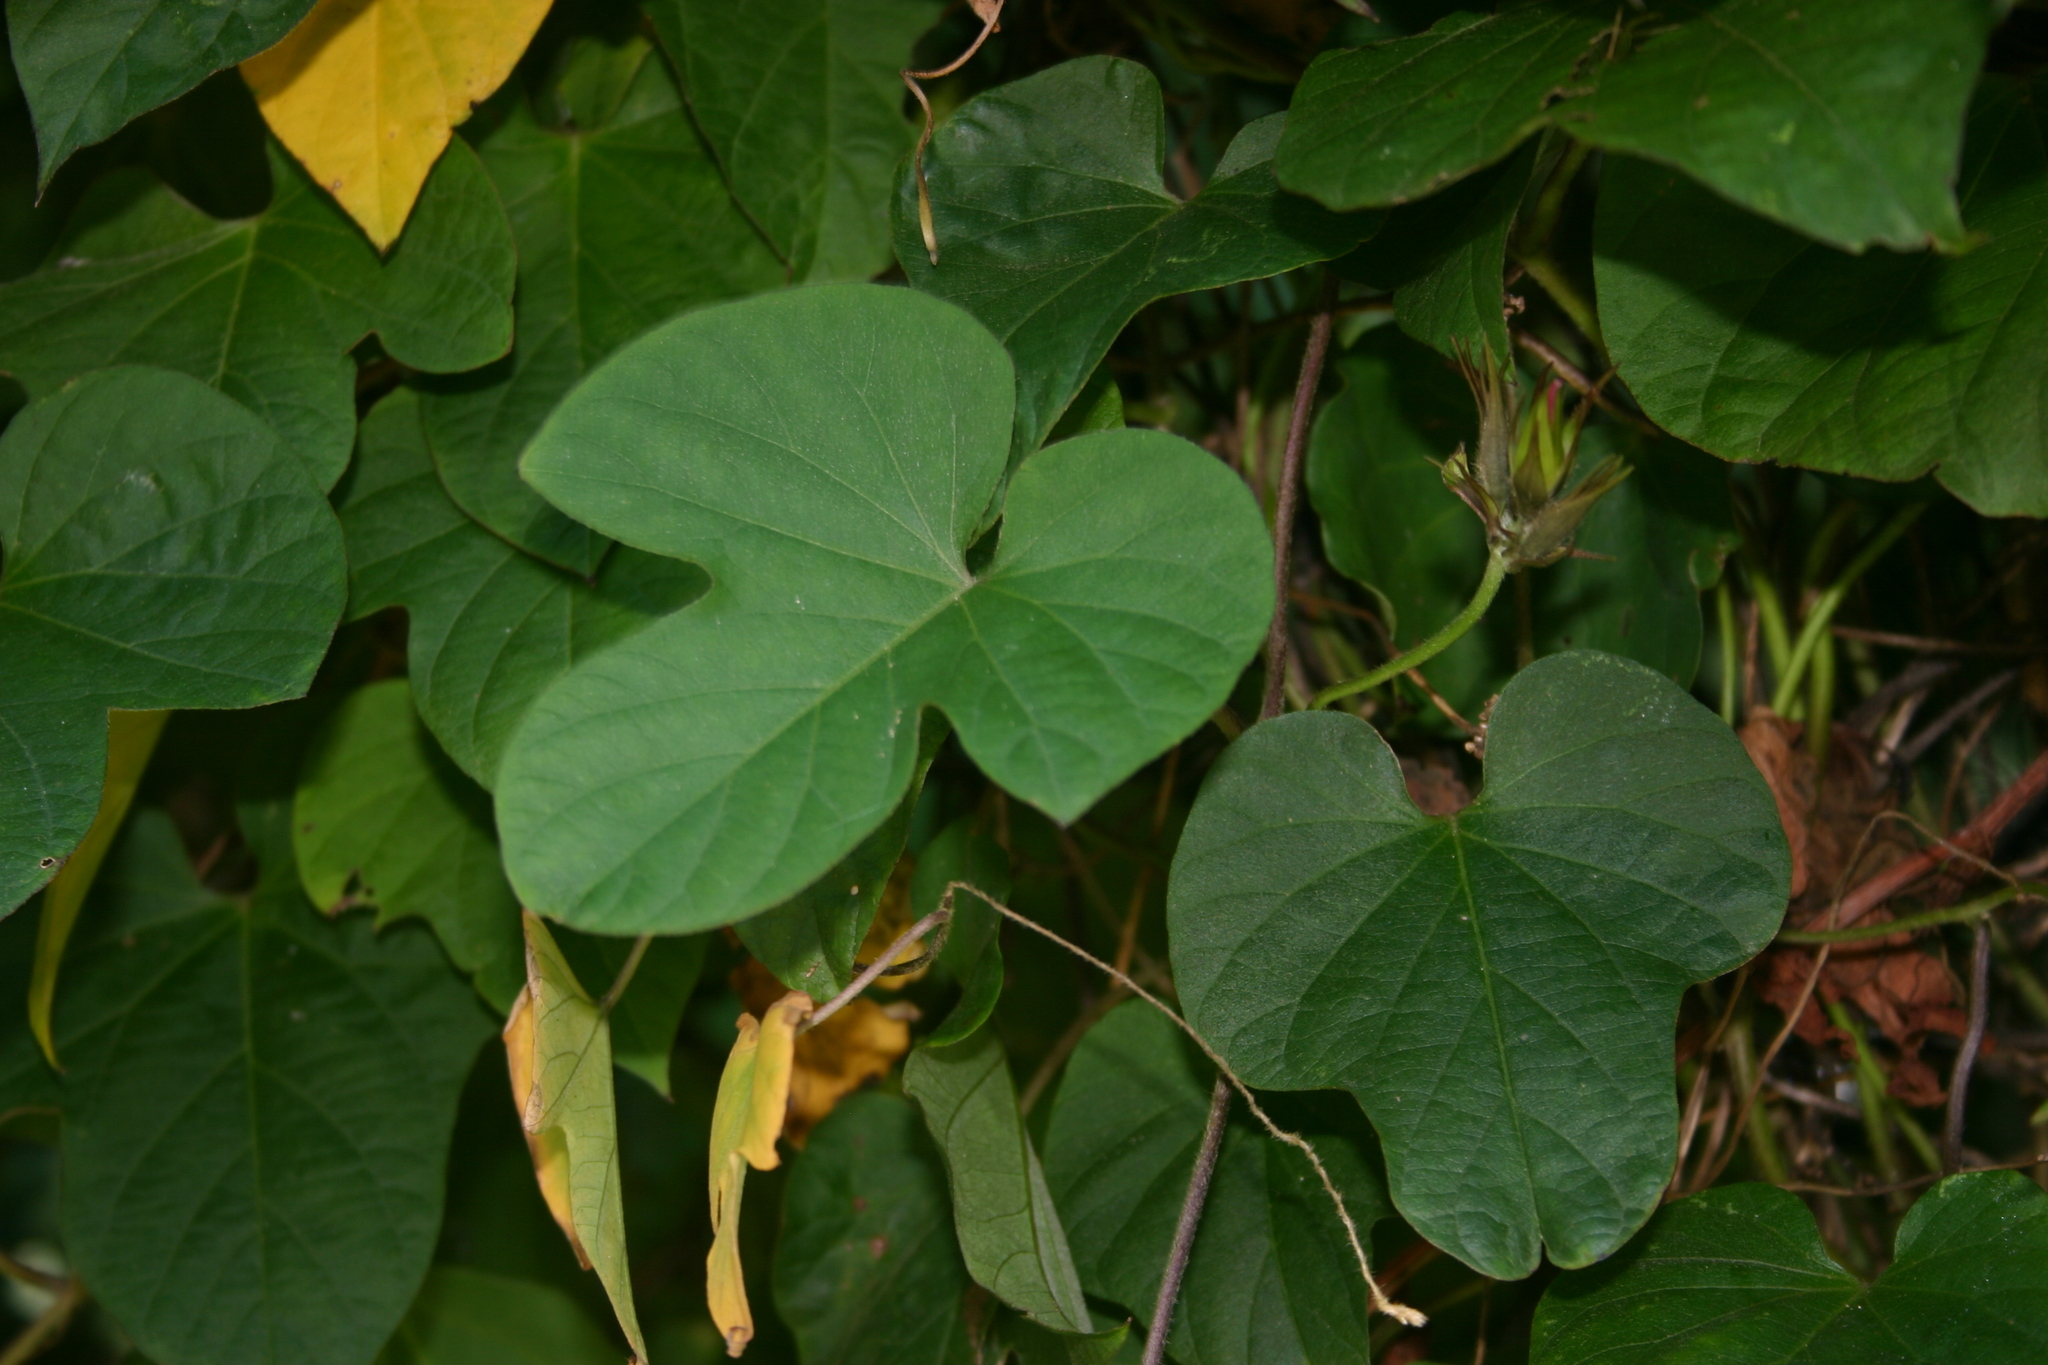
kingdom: Plantae
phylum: Tracheophyta
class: Magnoliopsida
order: Solanales
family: Convolvulaceae
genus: Ipomoea
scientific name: Ipomoea indica
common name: Blue dawnflower
